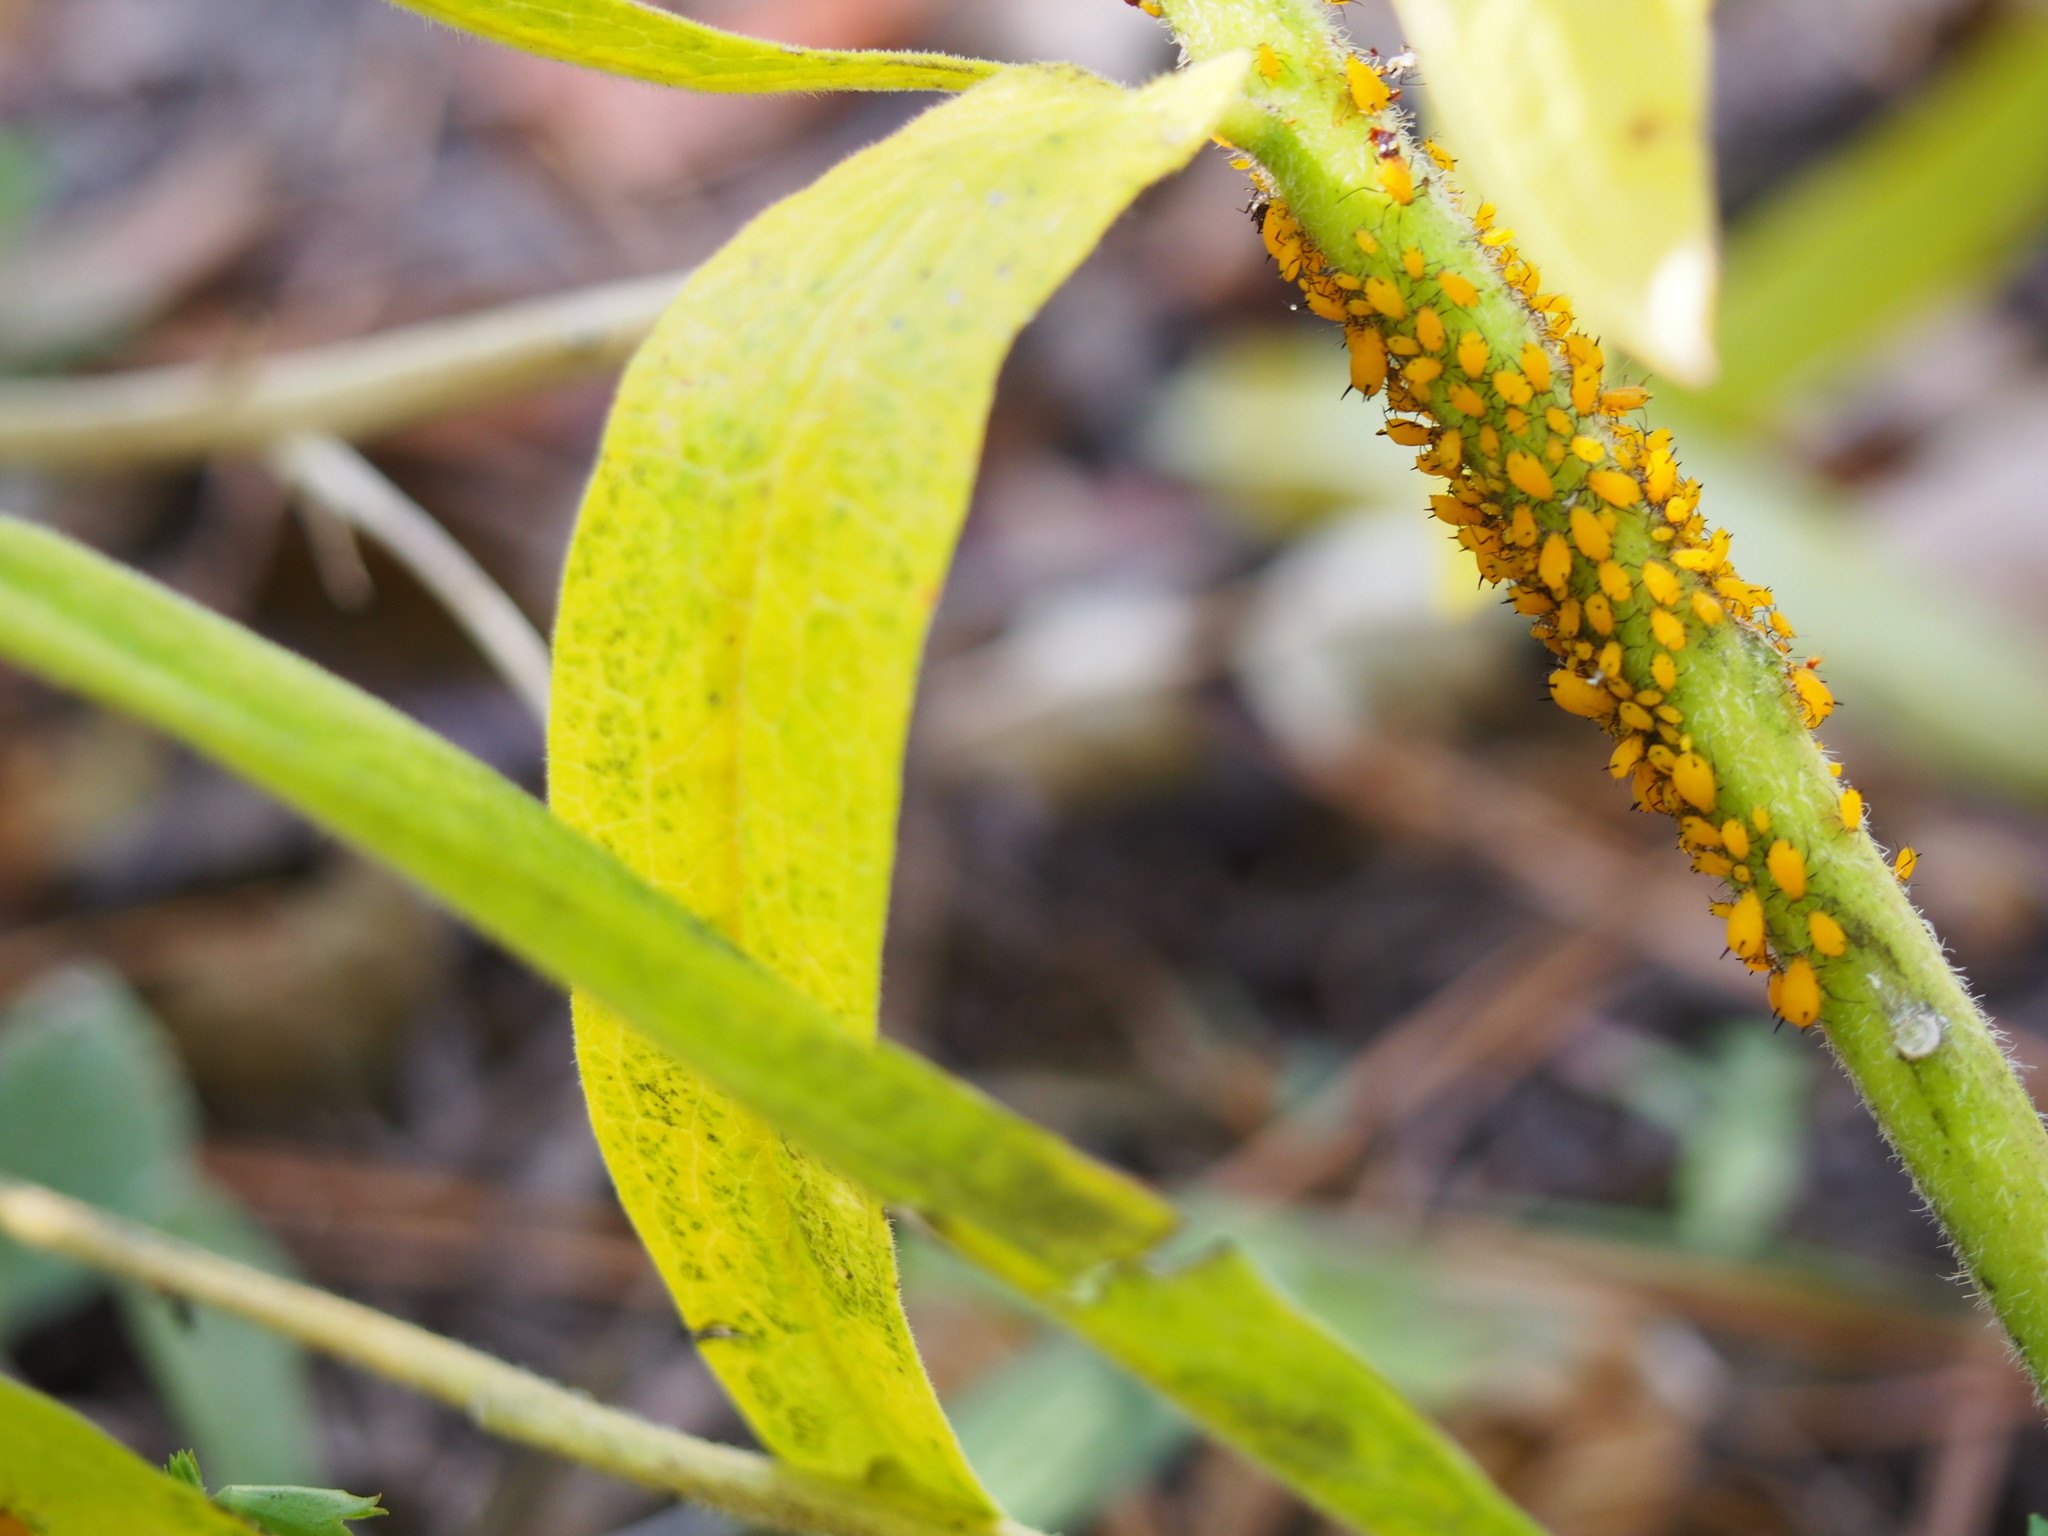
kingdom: Animalia
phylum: Arthropoda
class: Insecta
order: Hemiptera
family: Aphididae
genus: Aphis
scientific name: Aphis nerii
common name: Oleander aphid
